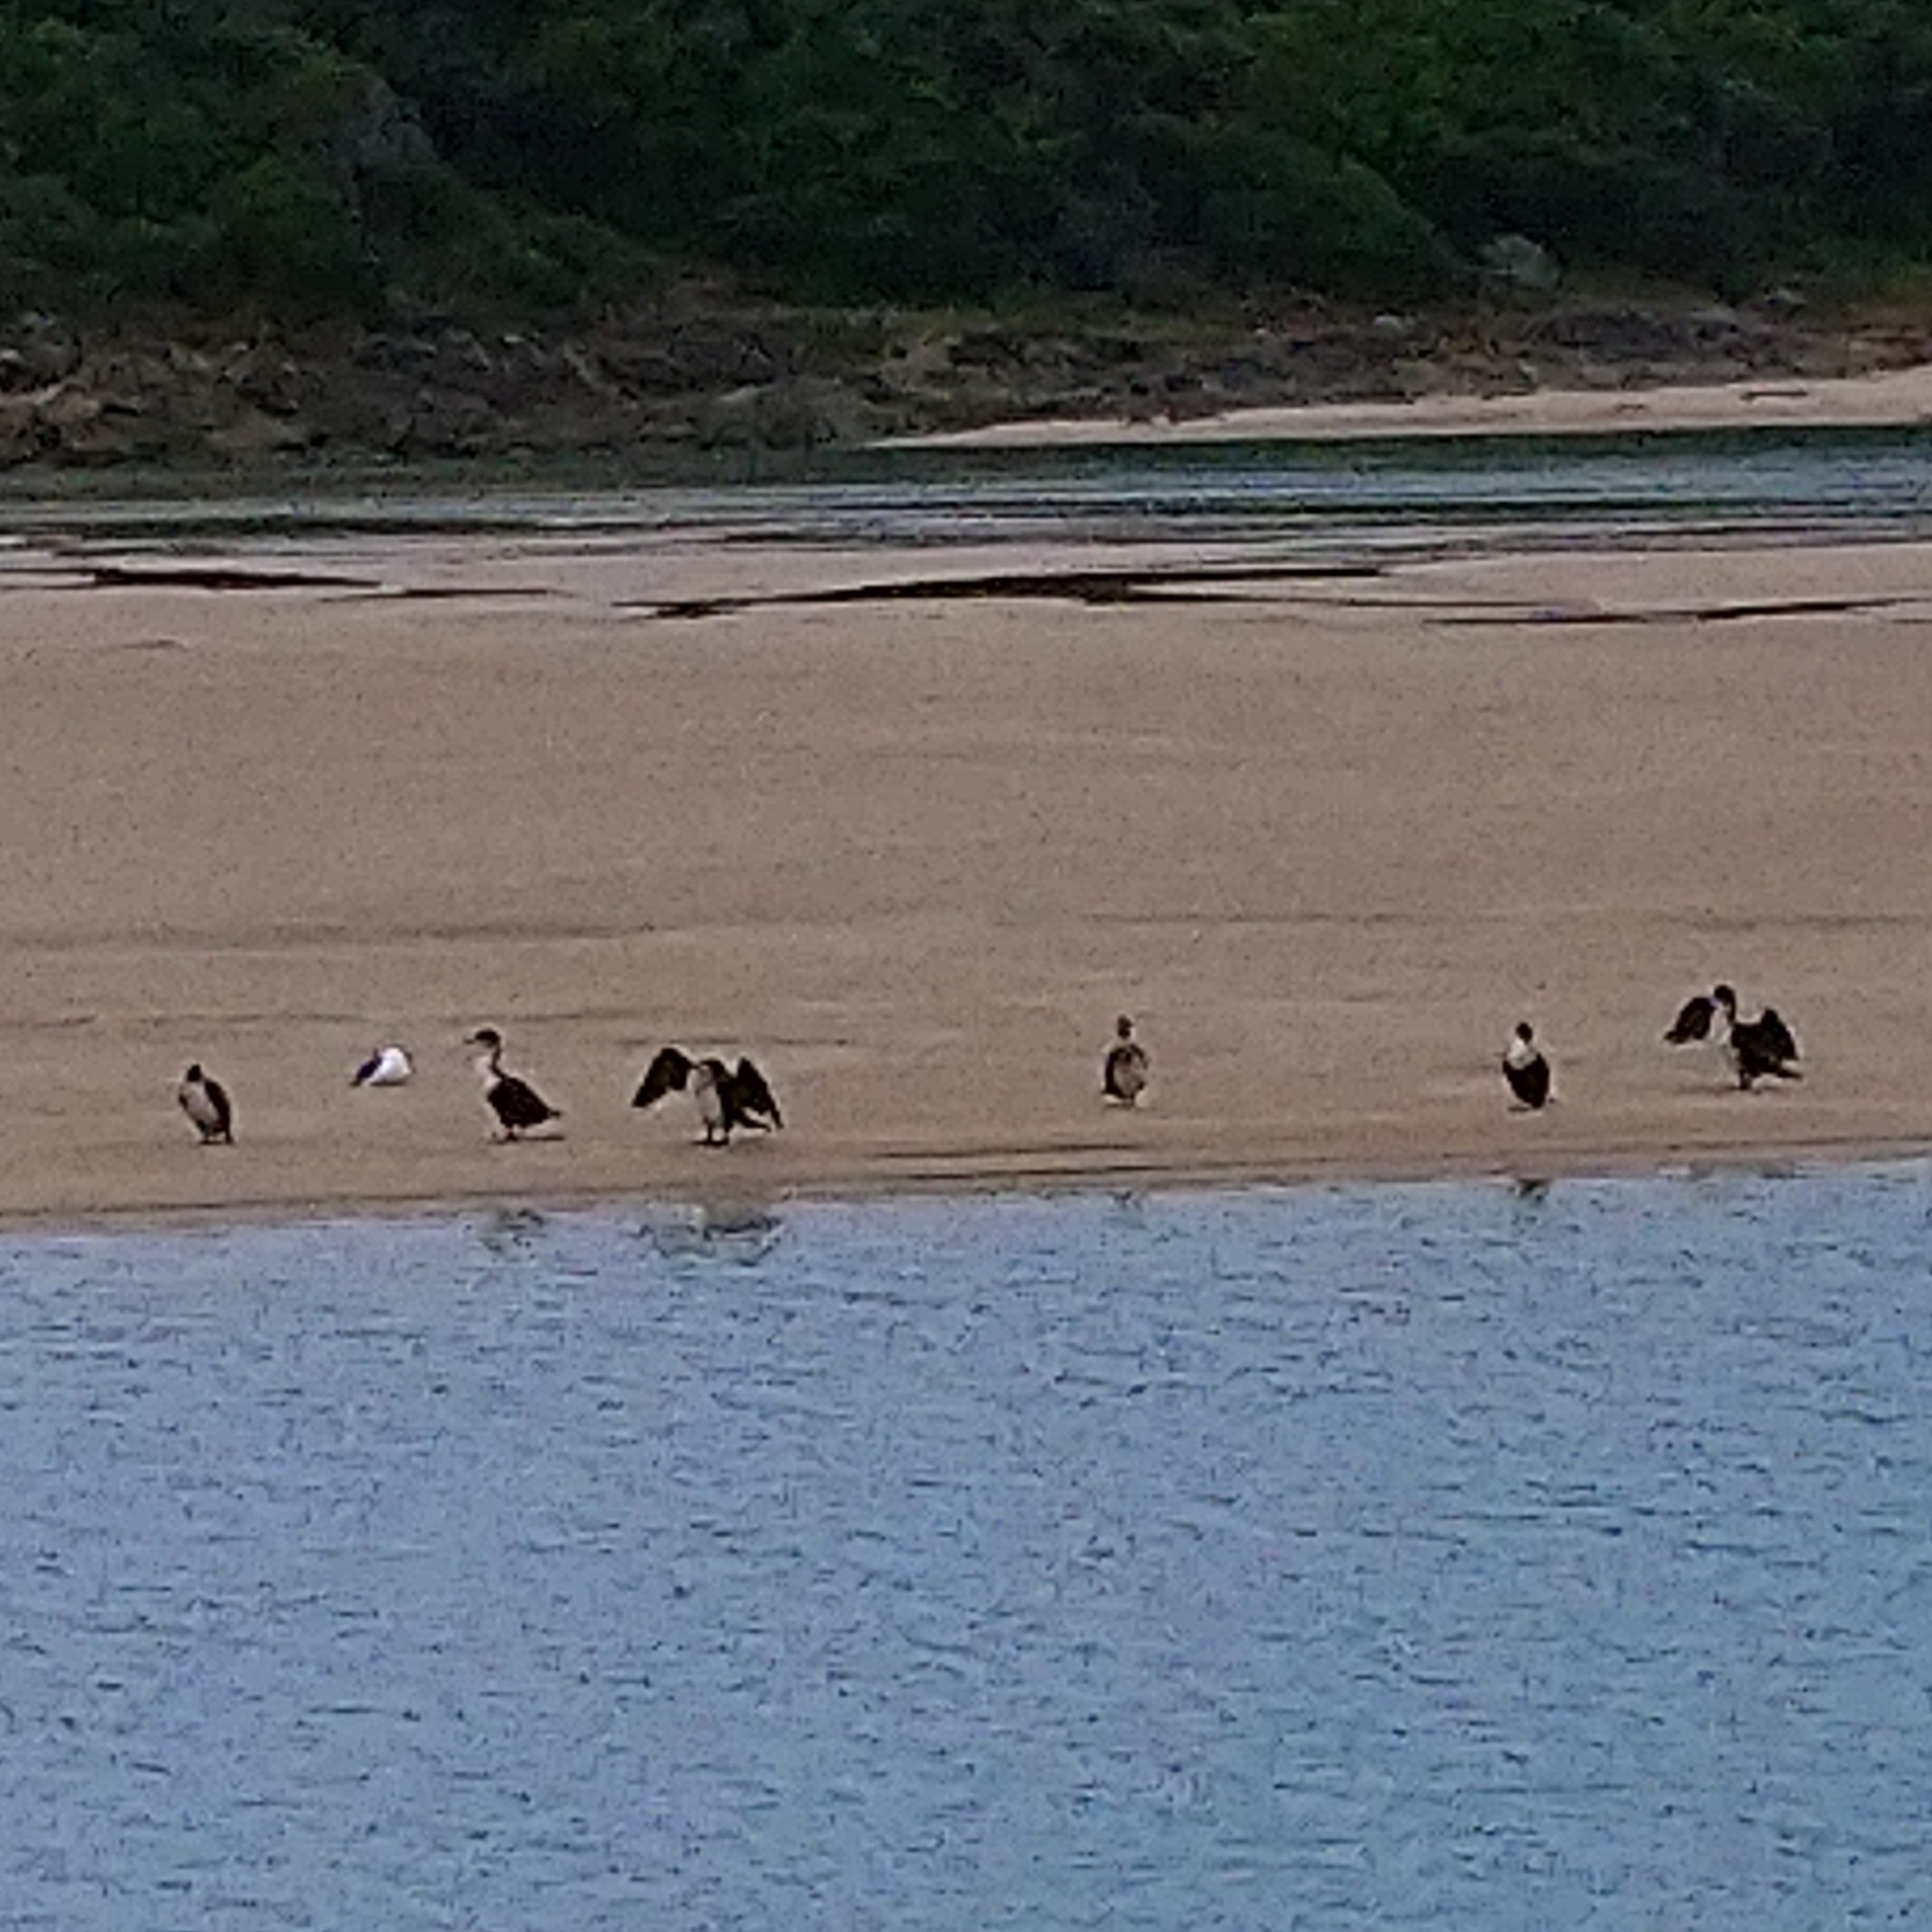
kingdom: Animalia
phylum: Chordata
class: Aves
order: Suliformes
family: Phalacrocoracidae
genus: Phalacrocorax
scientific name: Phalacrocorax carbo
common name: Great cormorant
